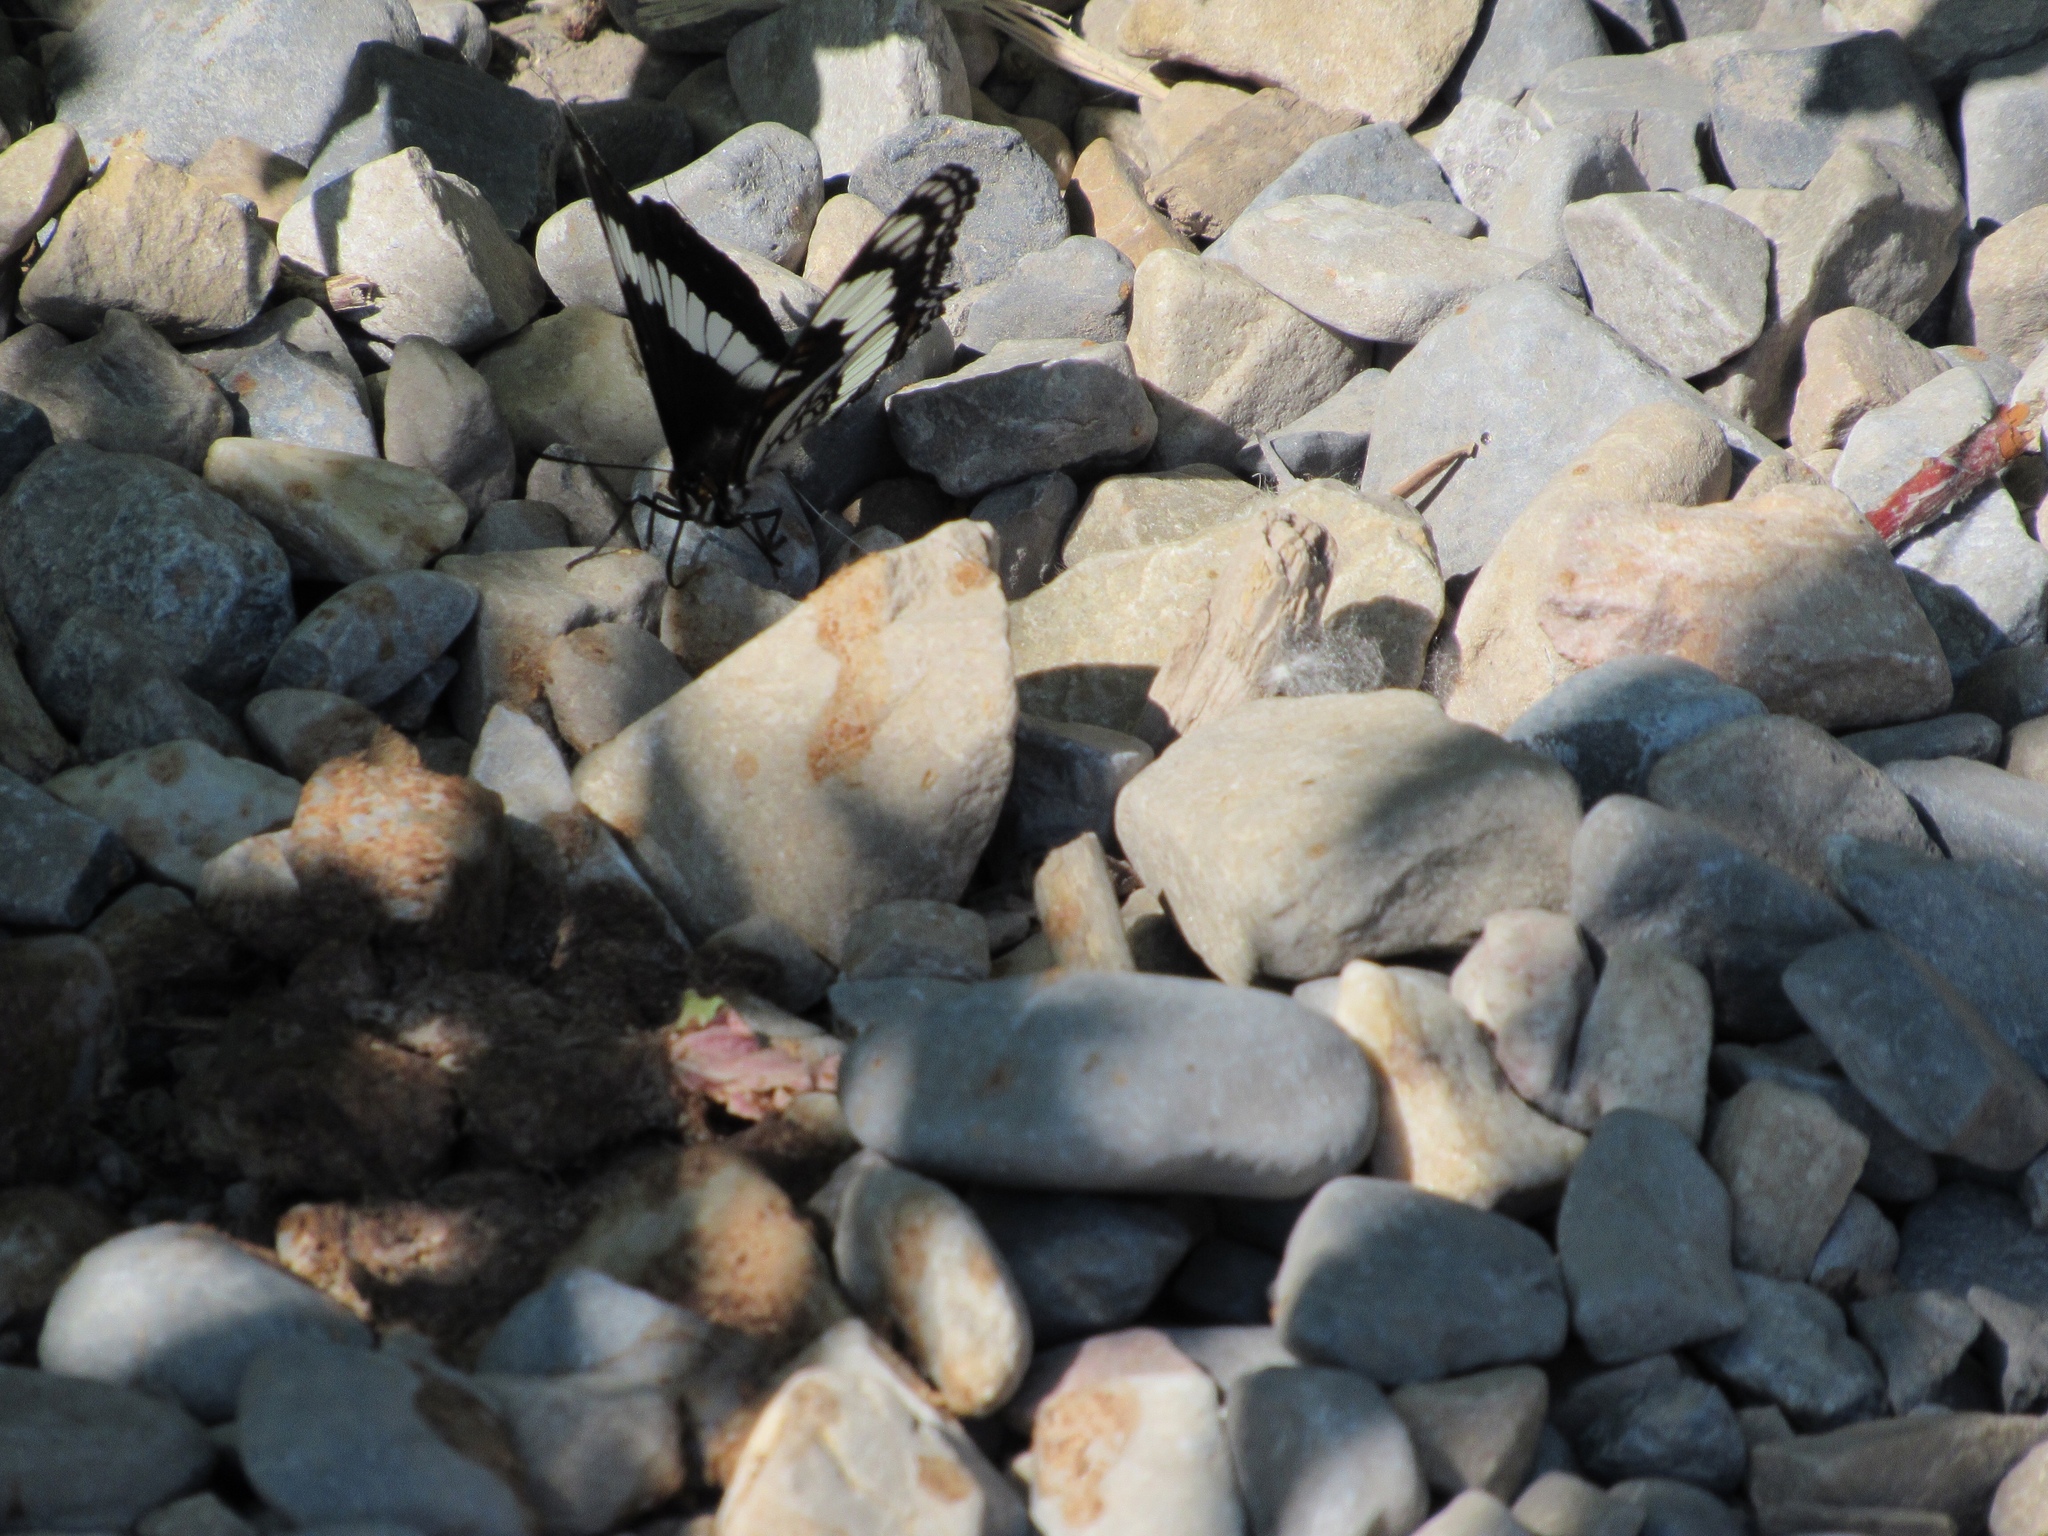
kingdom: Animalia
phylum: Arthropoda
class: Insecta
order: Lepidoptera
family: Nymphalidae
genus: Limenitis
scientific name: Limenitis weidemeyerii
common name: Weidemeyer's admiral
